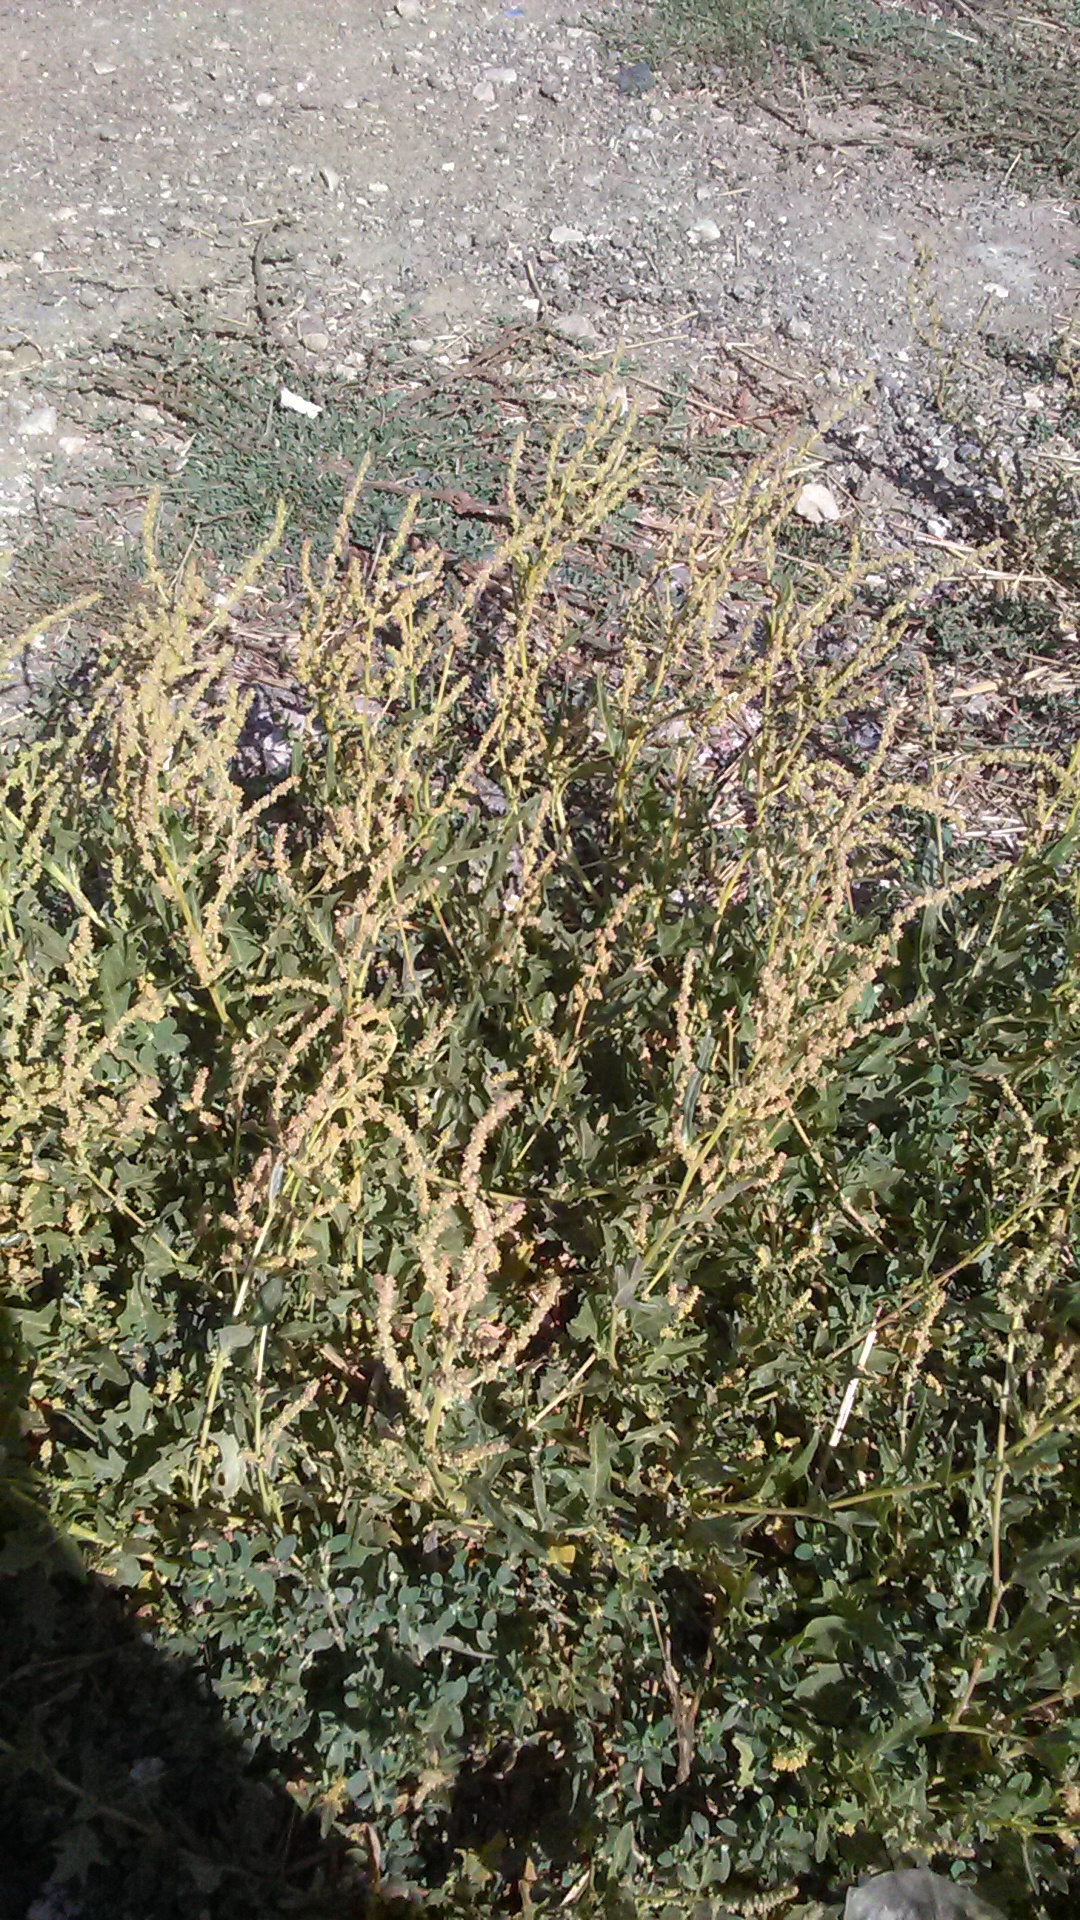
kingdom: Plantae
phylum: Tracheophyta
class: Magnoliopsida
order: Caryophyllales
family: Amaranthaceae
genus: Atriplex
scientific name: Atriplex tatarica
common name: Tatarian orache
